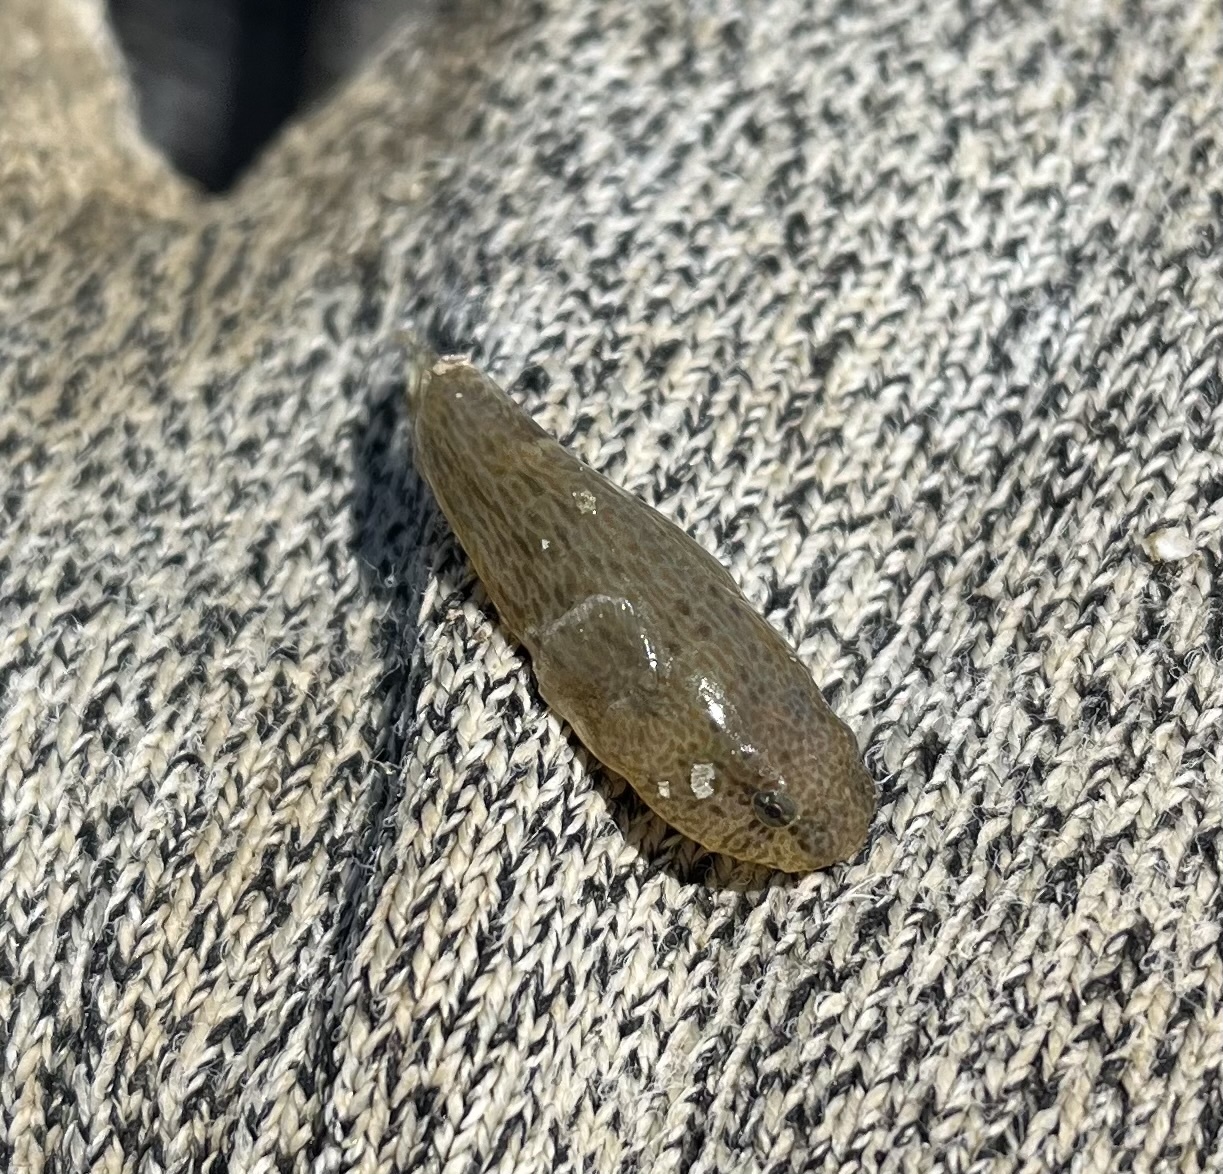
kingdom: Animalia
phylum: Chordata
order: Gobiesociformes
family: Gobiesocidae
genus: Gobiesox
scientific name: Gobiesox strumosus
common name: Skilletfish
